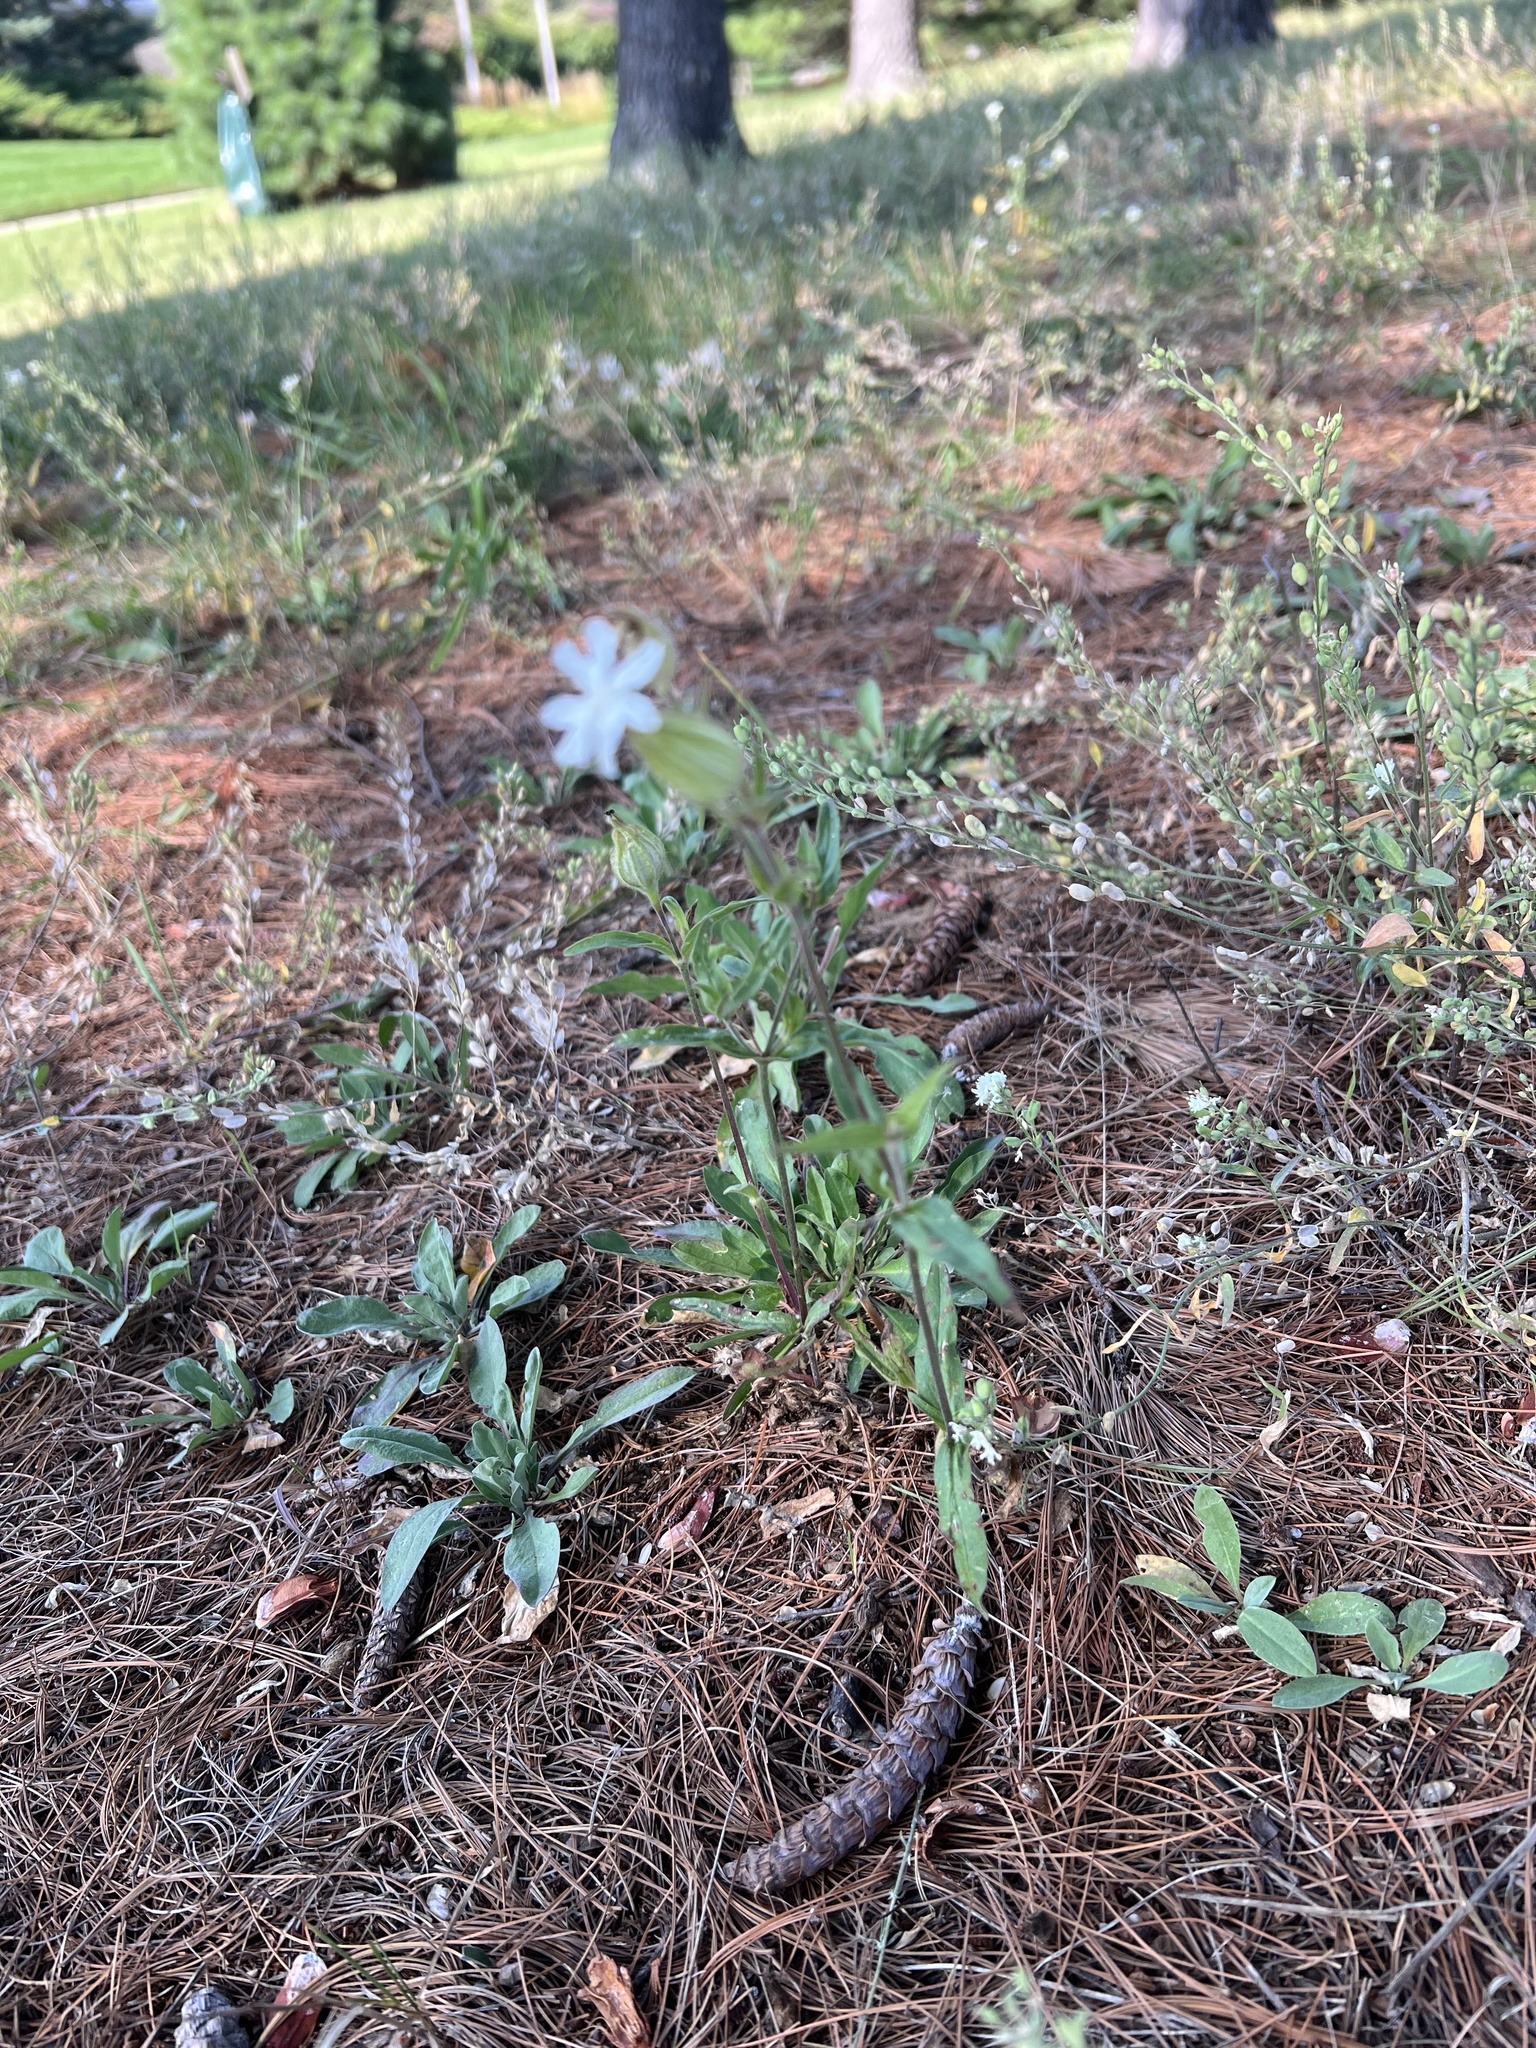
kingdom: Plantae
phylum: Tracheophyta
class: Magnoliopsida
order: Caryophyllales
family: Caryophyllaceae
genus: Silene
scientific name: Silene latifolia
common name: White campion
